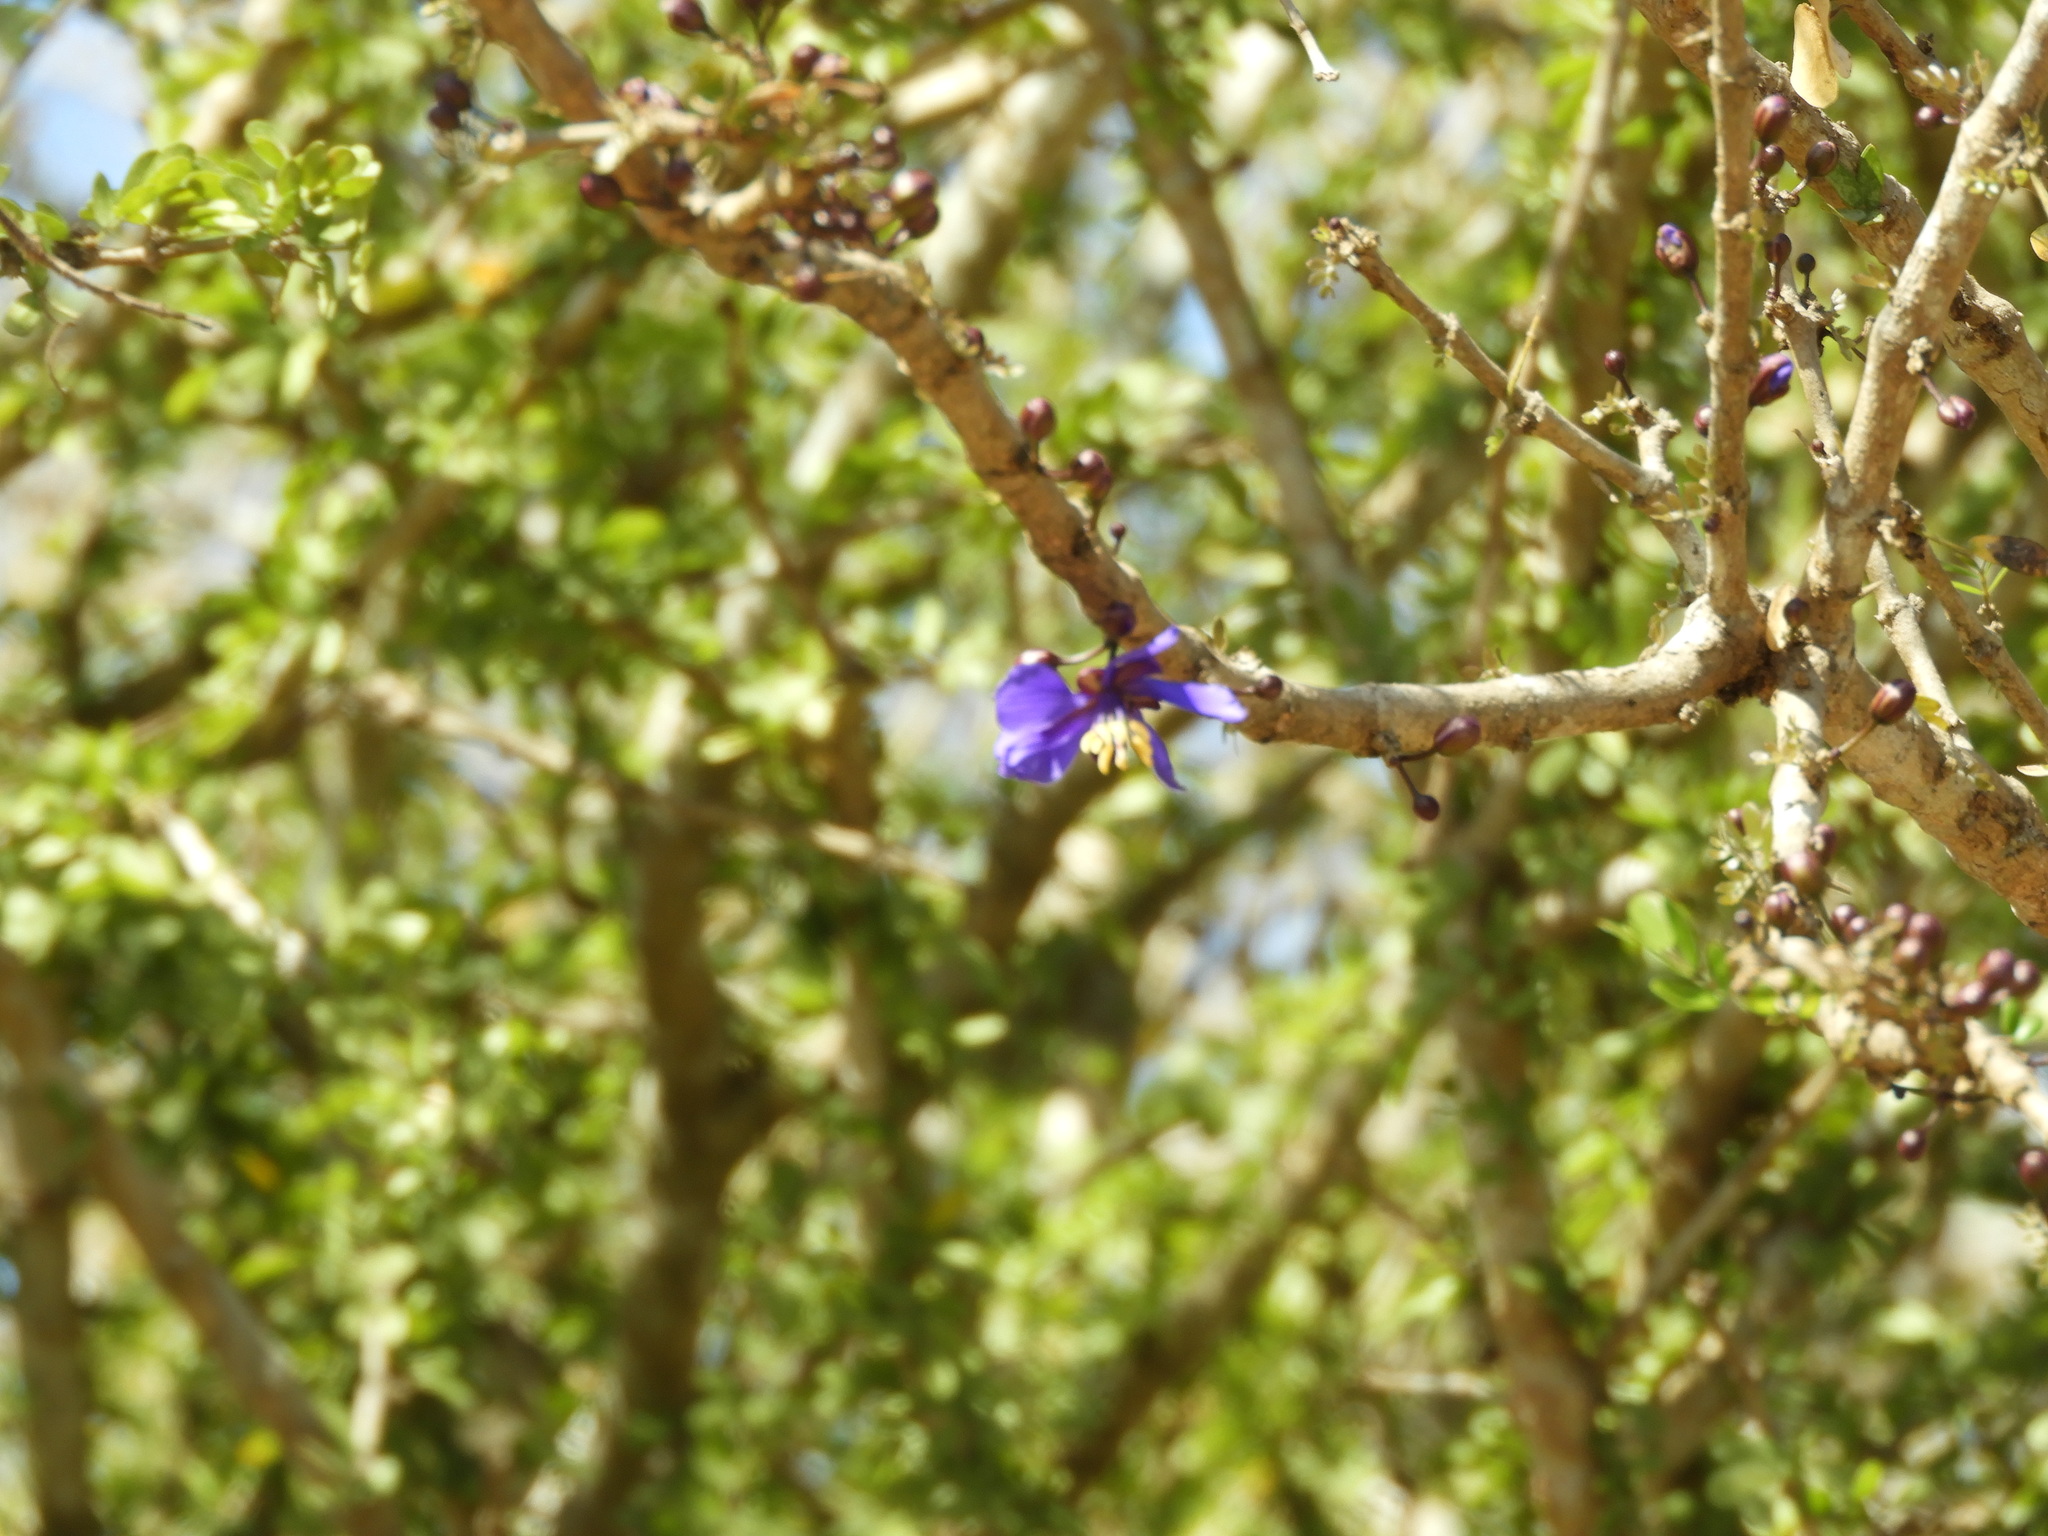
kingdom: Plantae
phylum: Tracheophyta
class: Magnoliopsida
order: Zygophyllales
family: Zygophyllaceae
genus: Guaiacum
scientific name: Guaiacum coulteri
